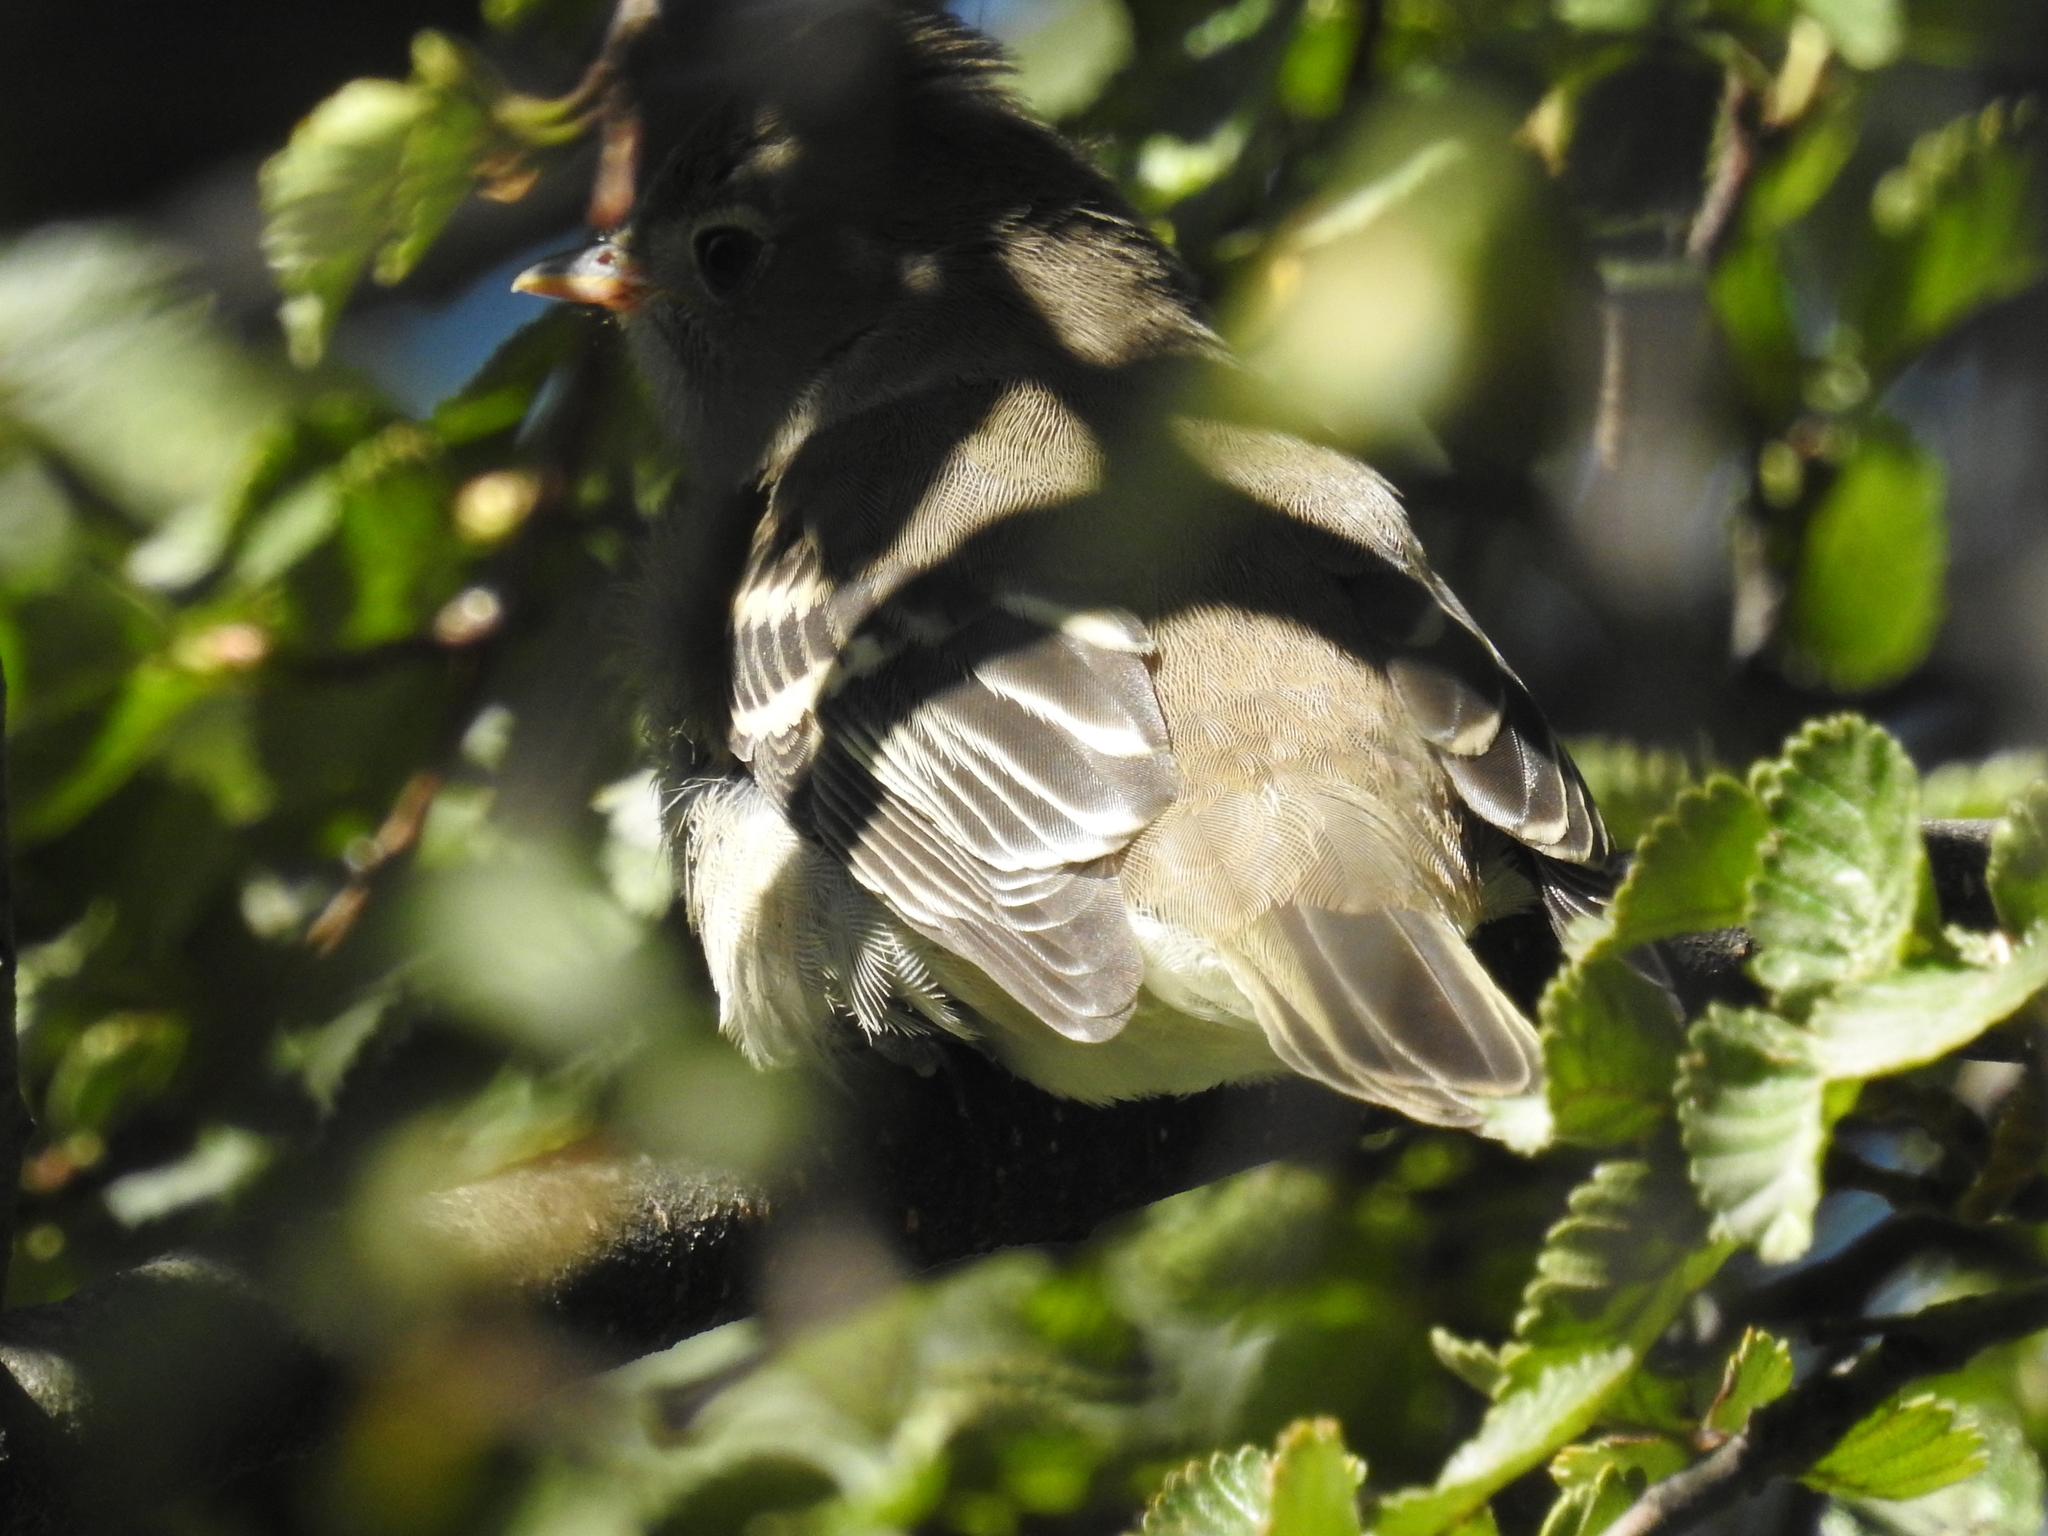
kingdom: Animalia
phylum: Chordata
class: Aves
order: Passeriformes
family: Tyrannidae
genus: Elaenia
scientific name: Elaenia albiceps
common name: White-crested elaenia
